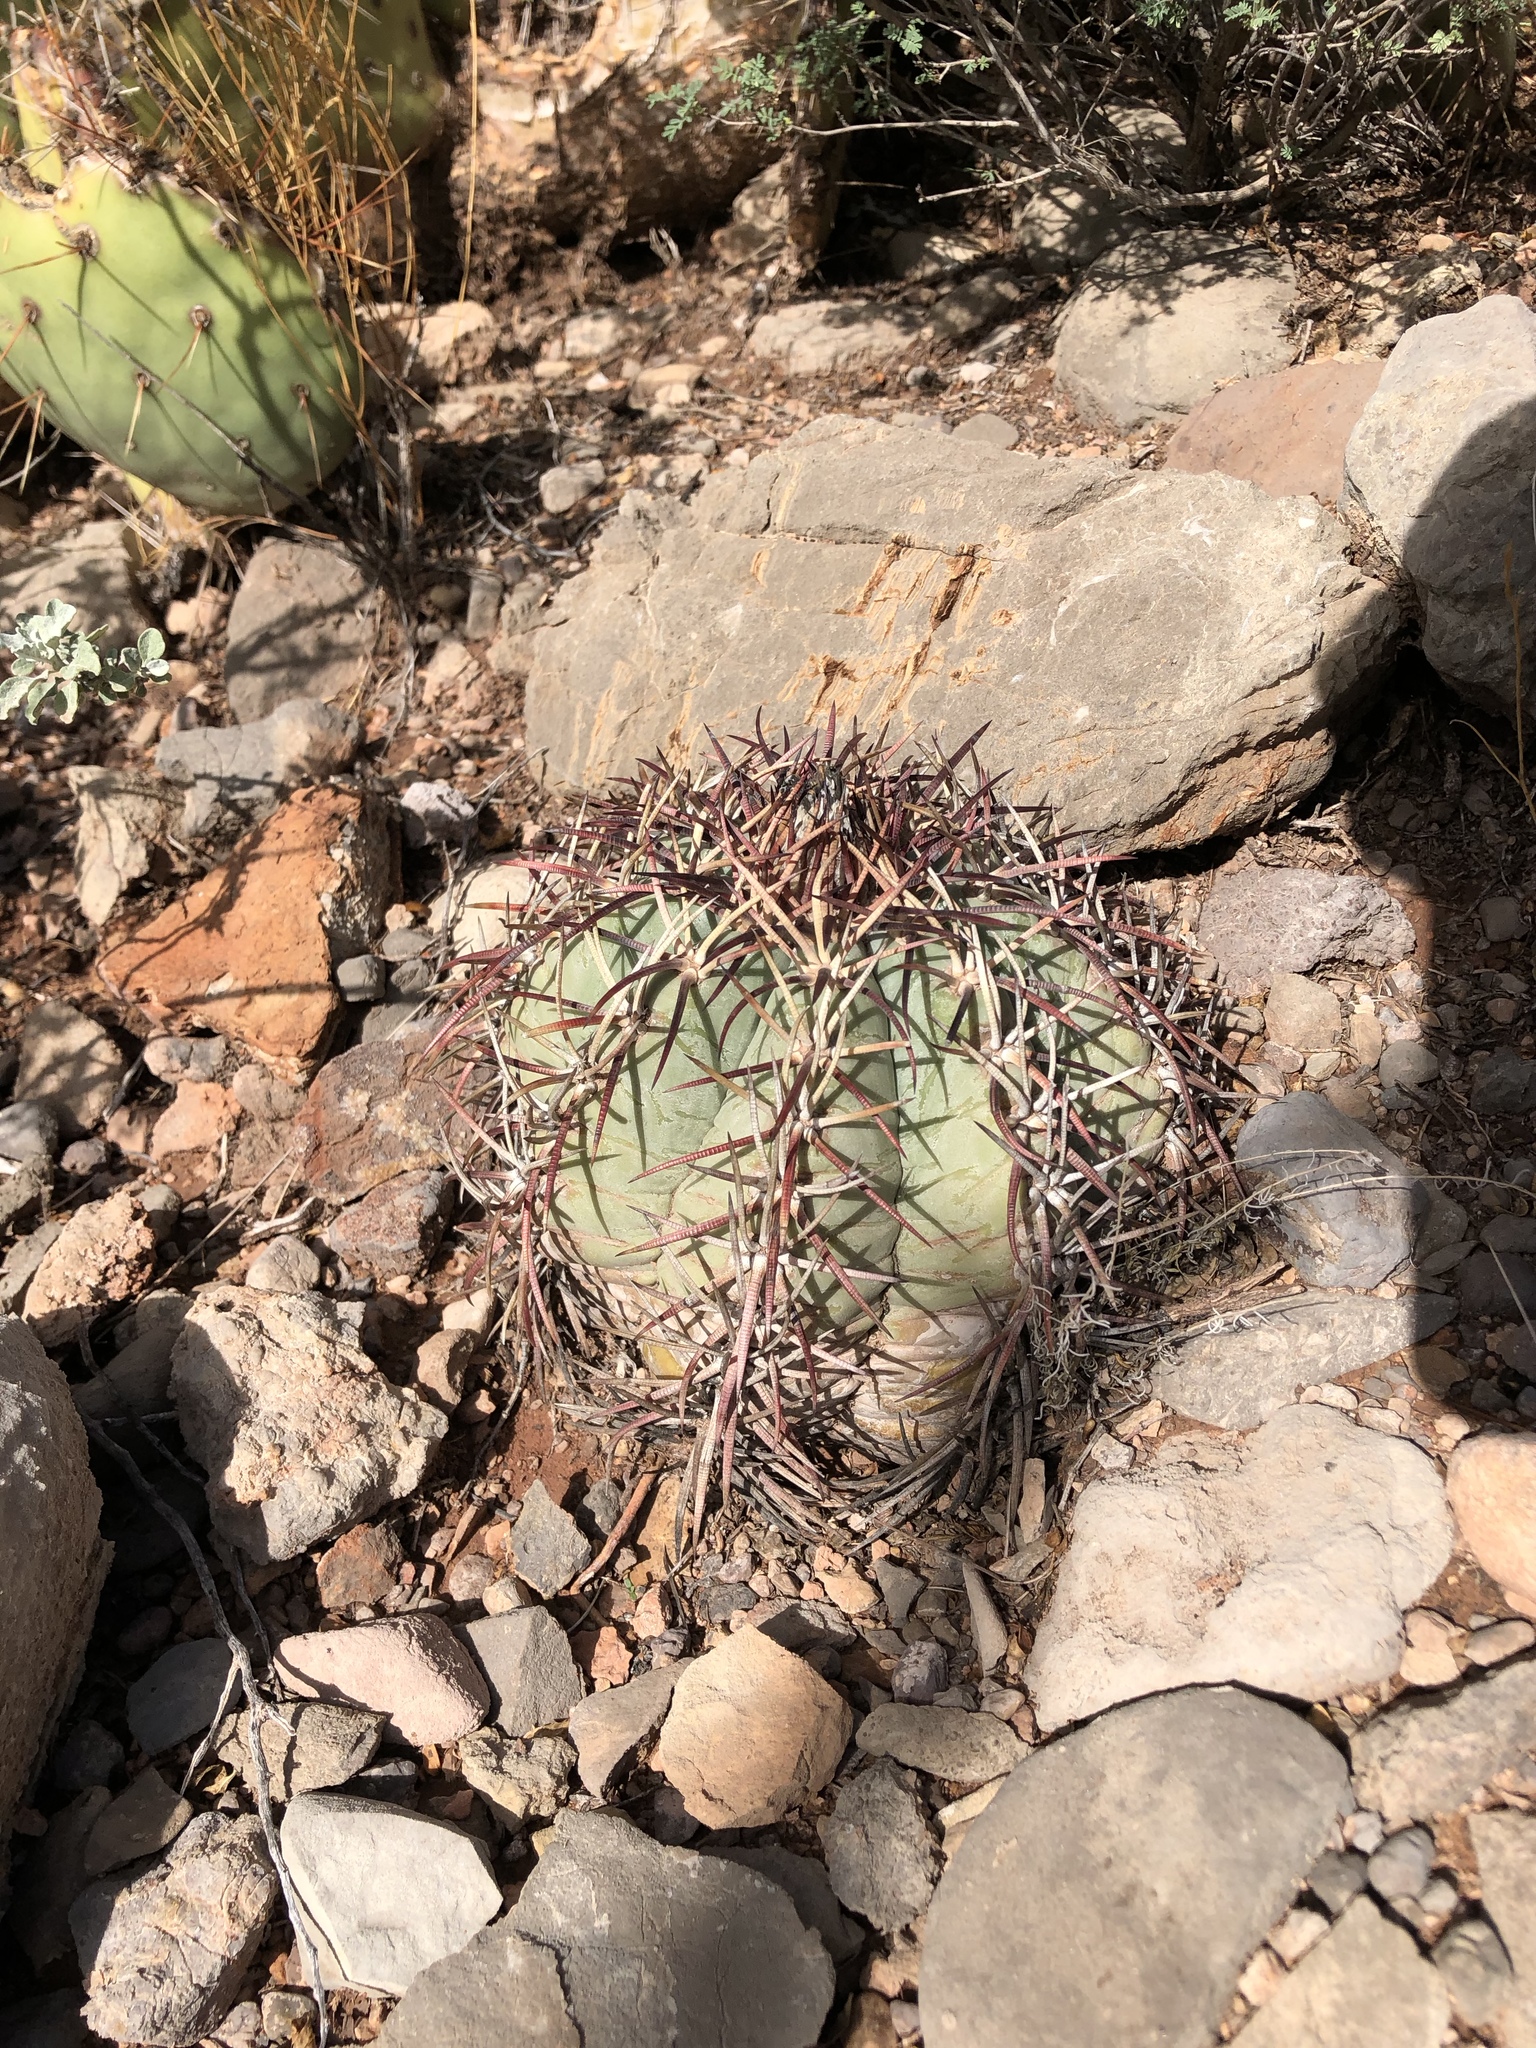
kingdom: Plantae
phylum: Tracheophyta
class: Magnoliopsida
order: Caryophyllales
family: Cactaceae
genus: Echinocactus
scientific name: Echinocactus horizonthalonius
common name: Devilshead
